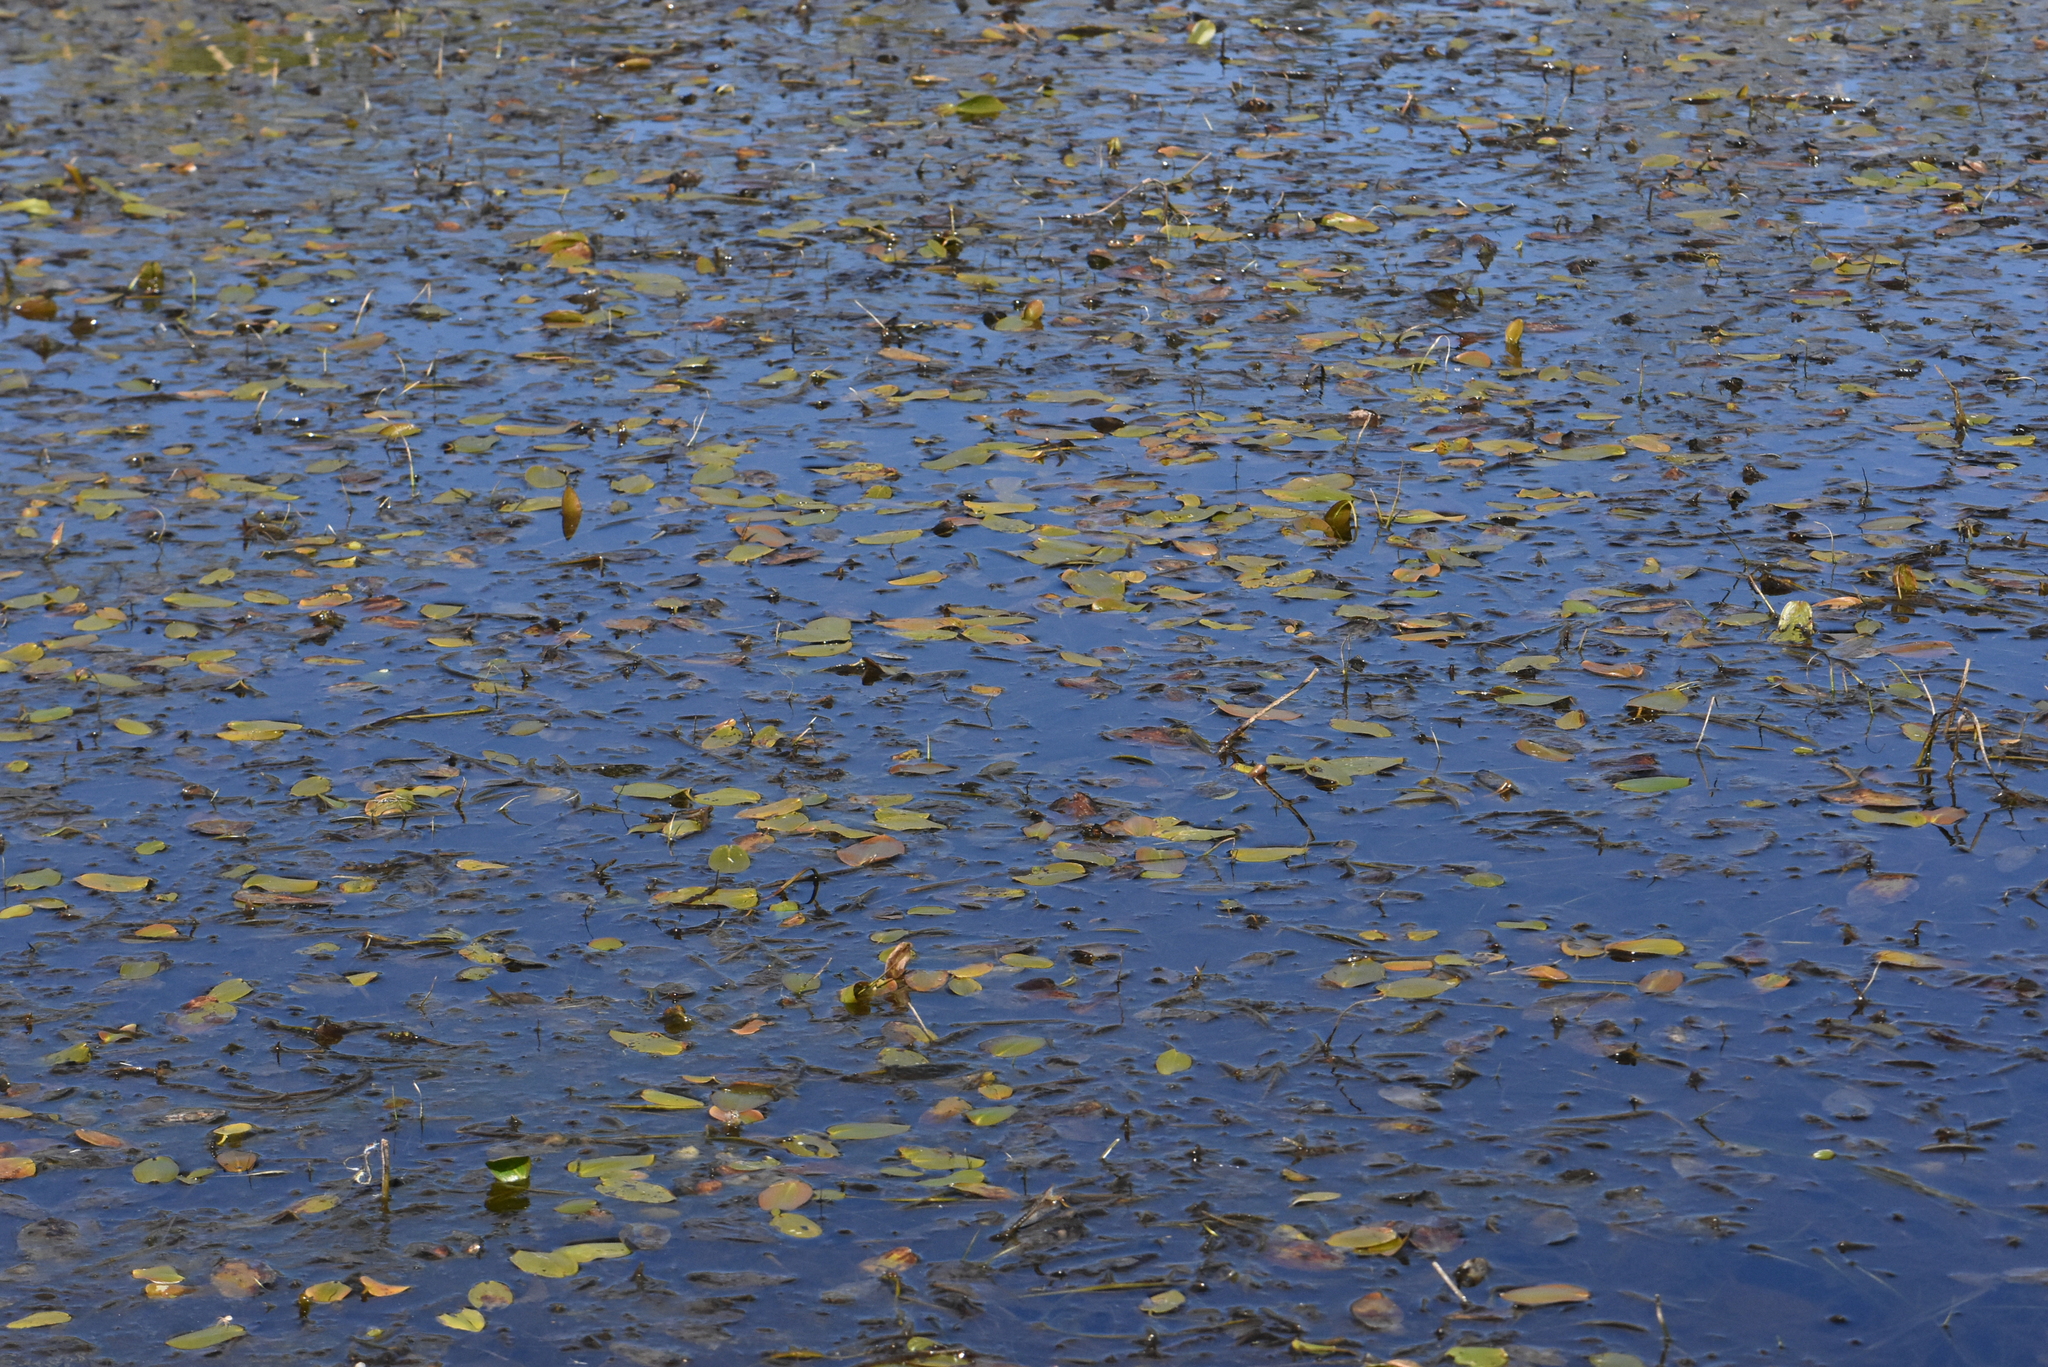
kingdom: Plantae
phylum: Tracheophyta
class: Liliopsida
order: Alismatales
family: Potamogetonaceae
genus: Potamogeton
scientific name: Potamogeton natans
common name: Broad-leaved pondweed
